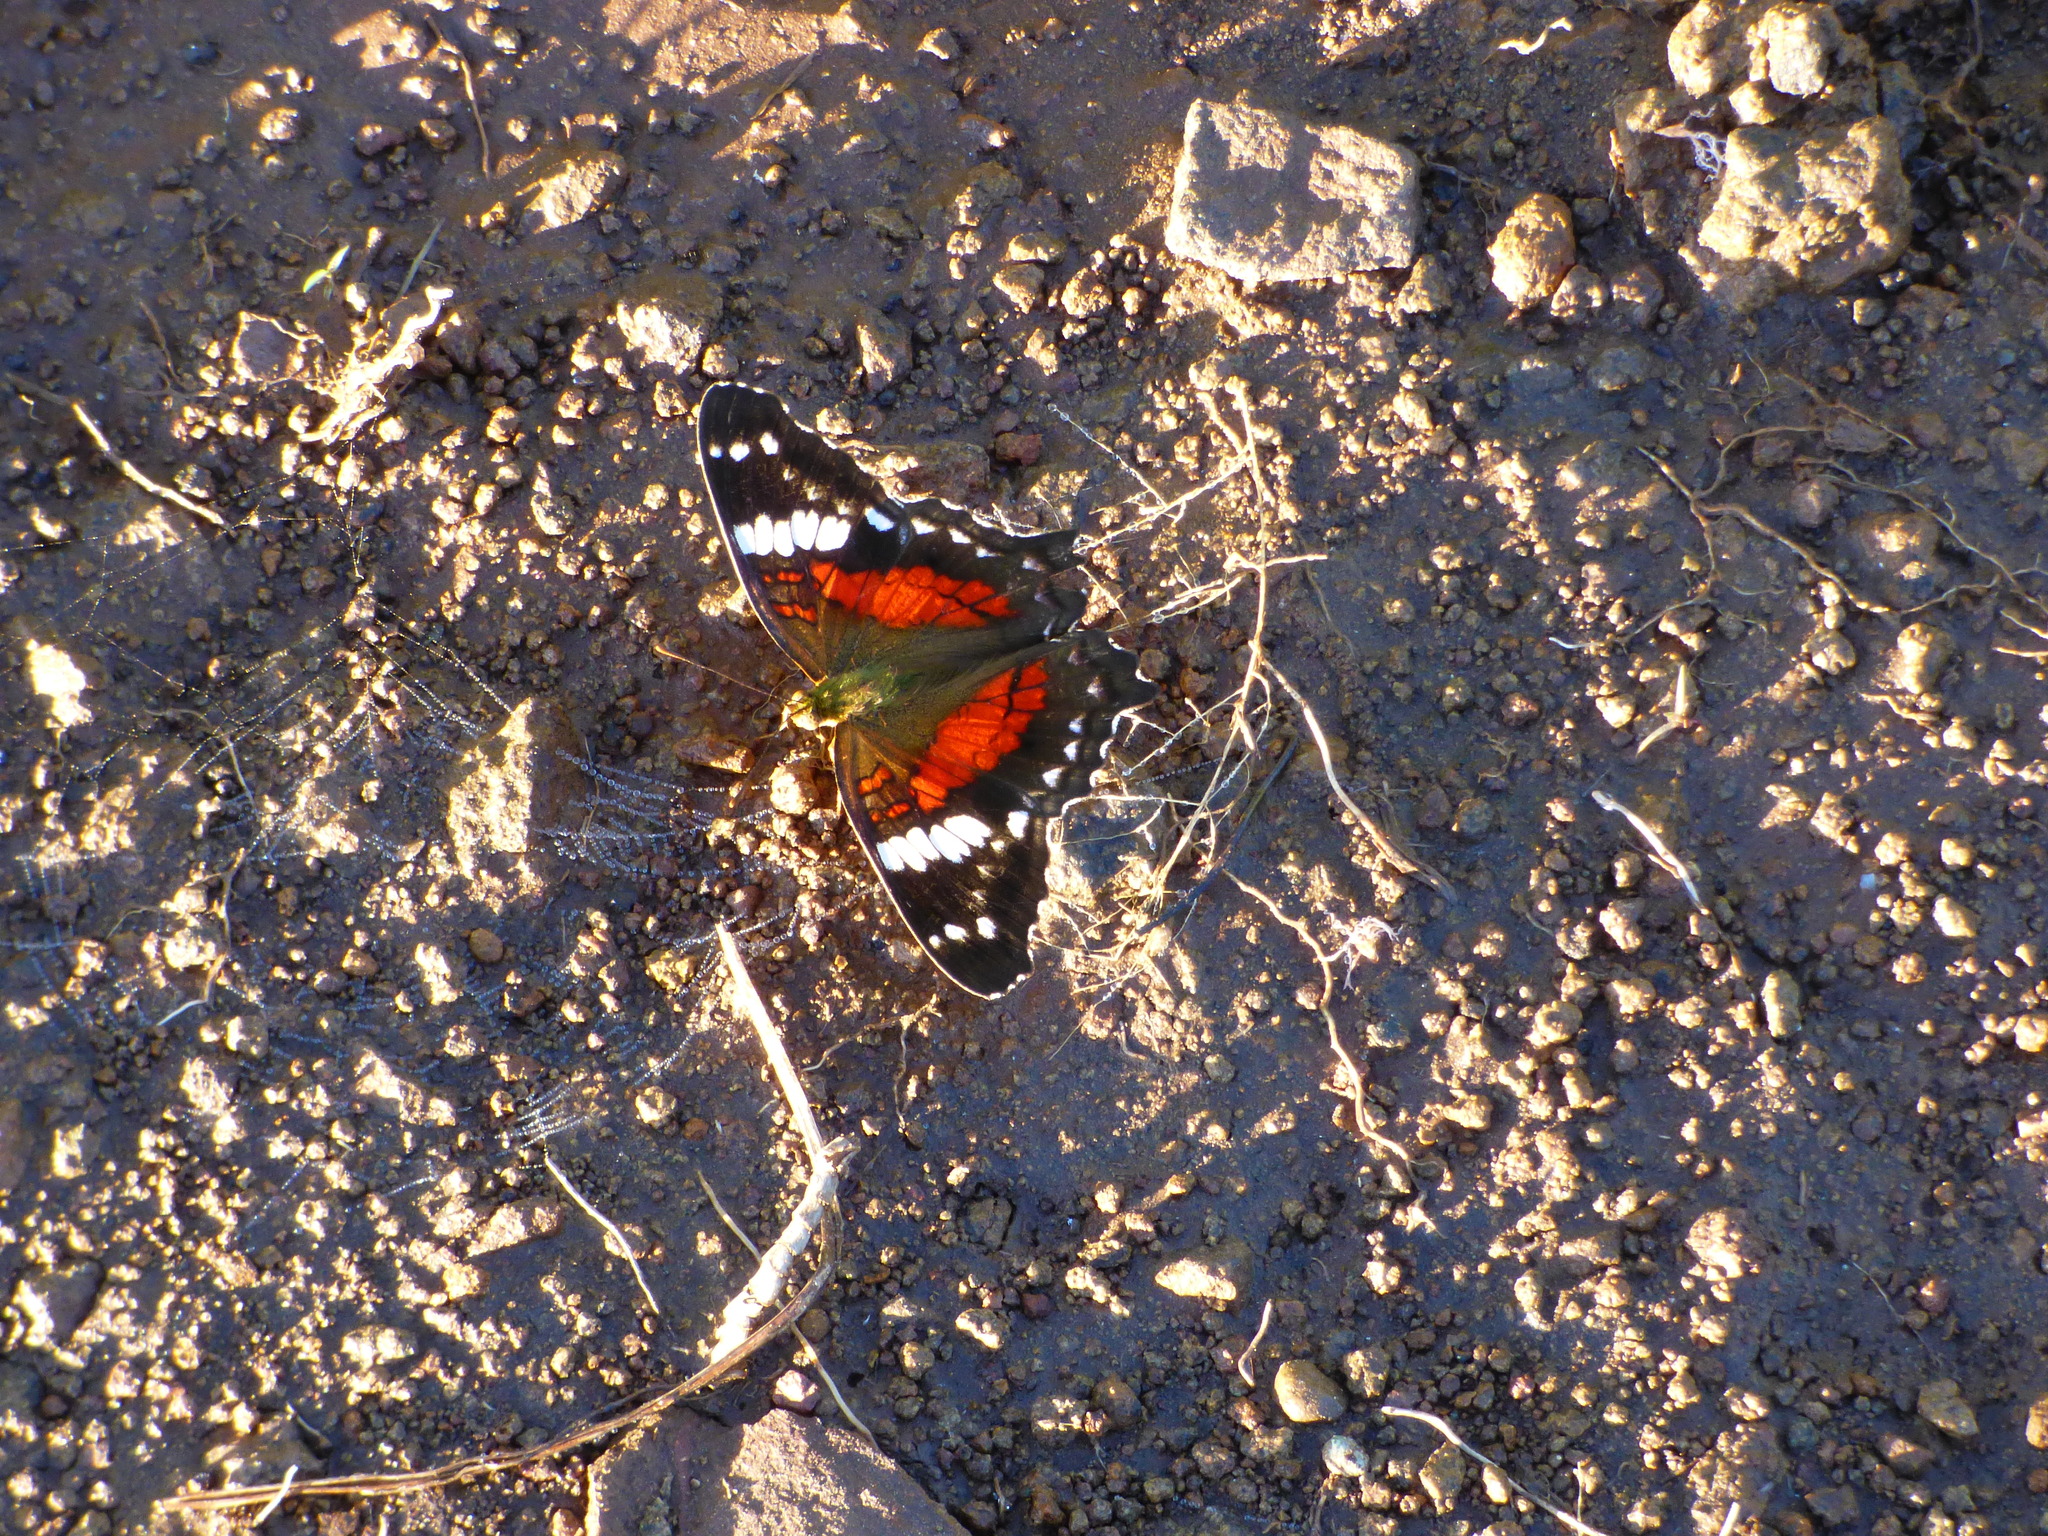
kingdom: Animalia
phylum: Arthropoda
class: Insecta
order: Lepidoptera
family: Nymphalidae
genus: Anartia
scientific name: Anartia amathea
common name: Red peacock
